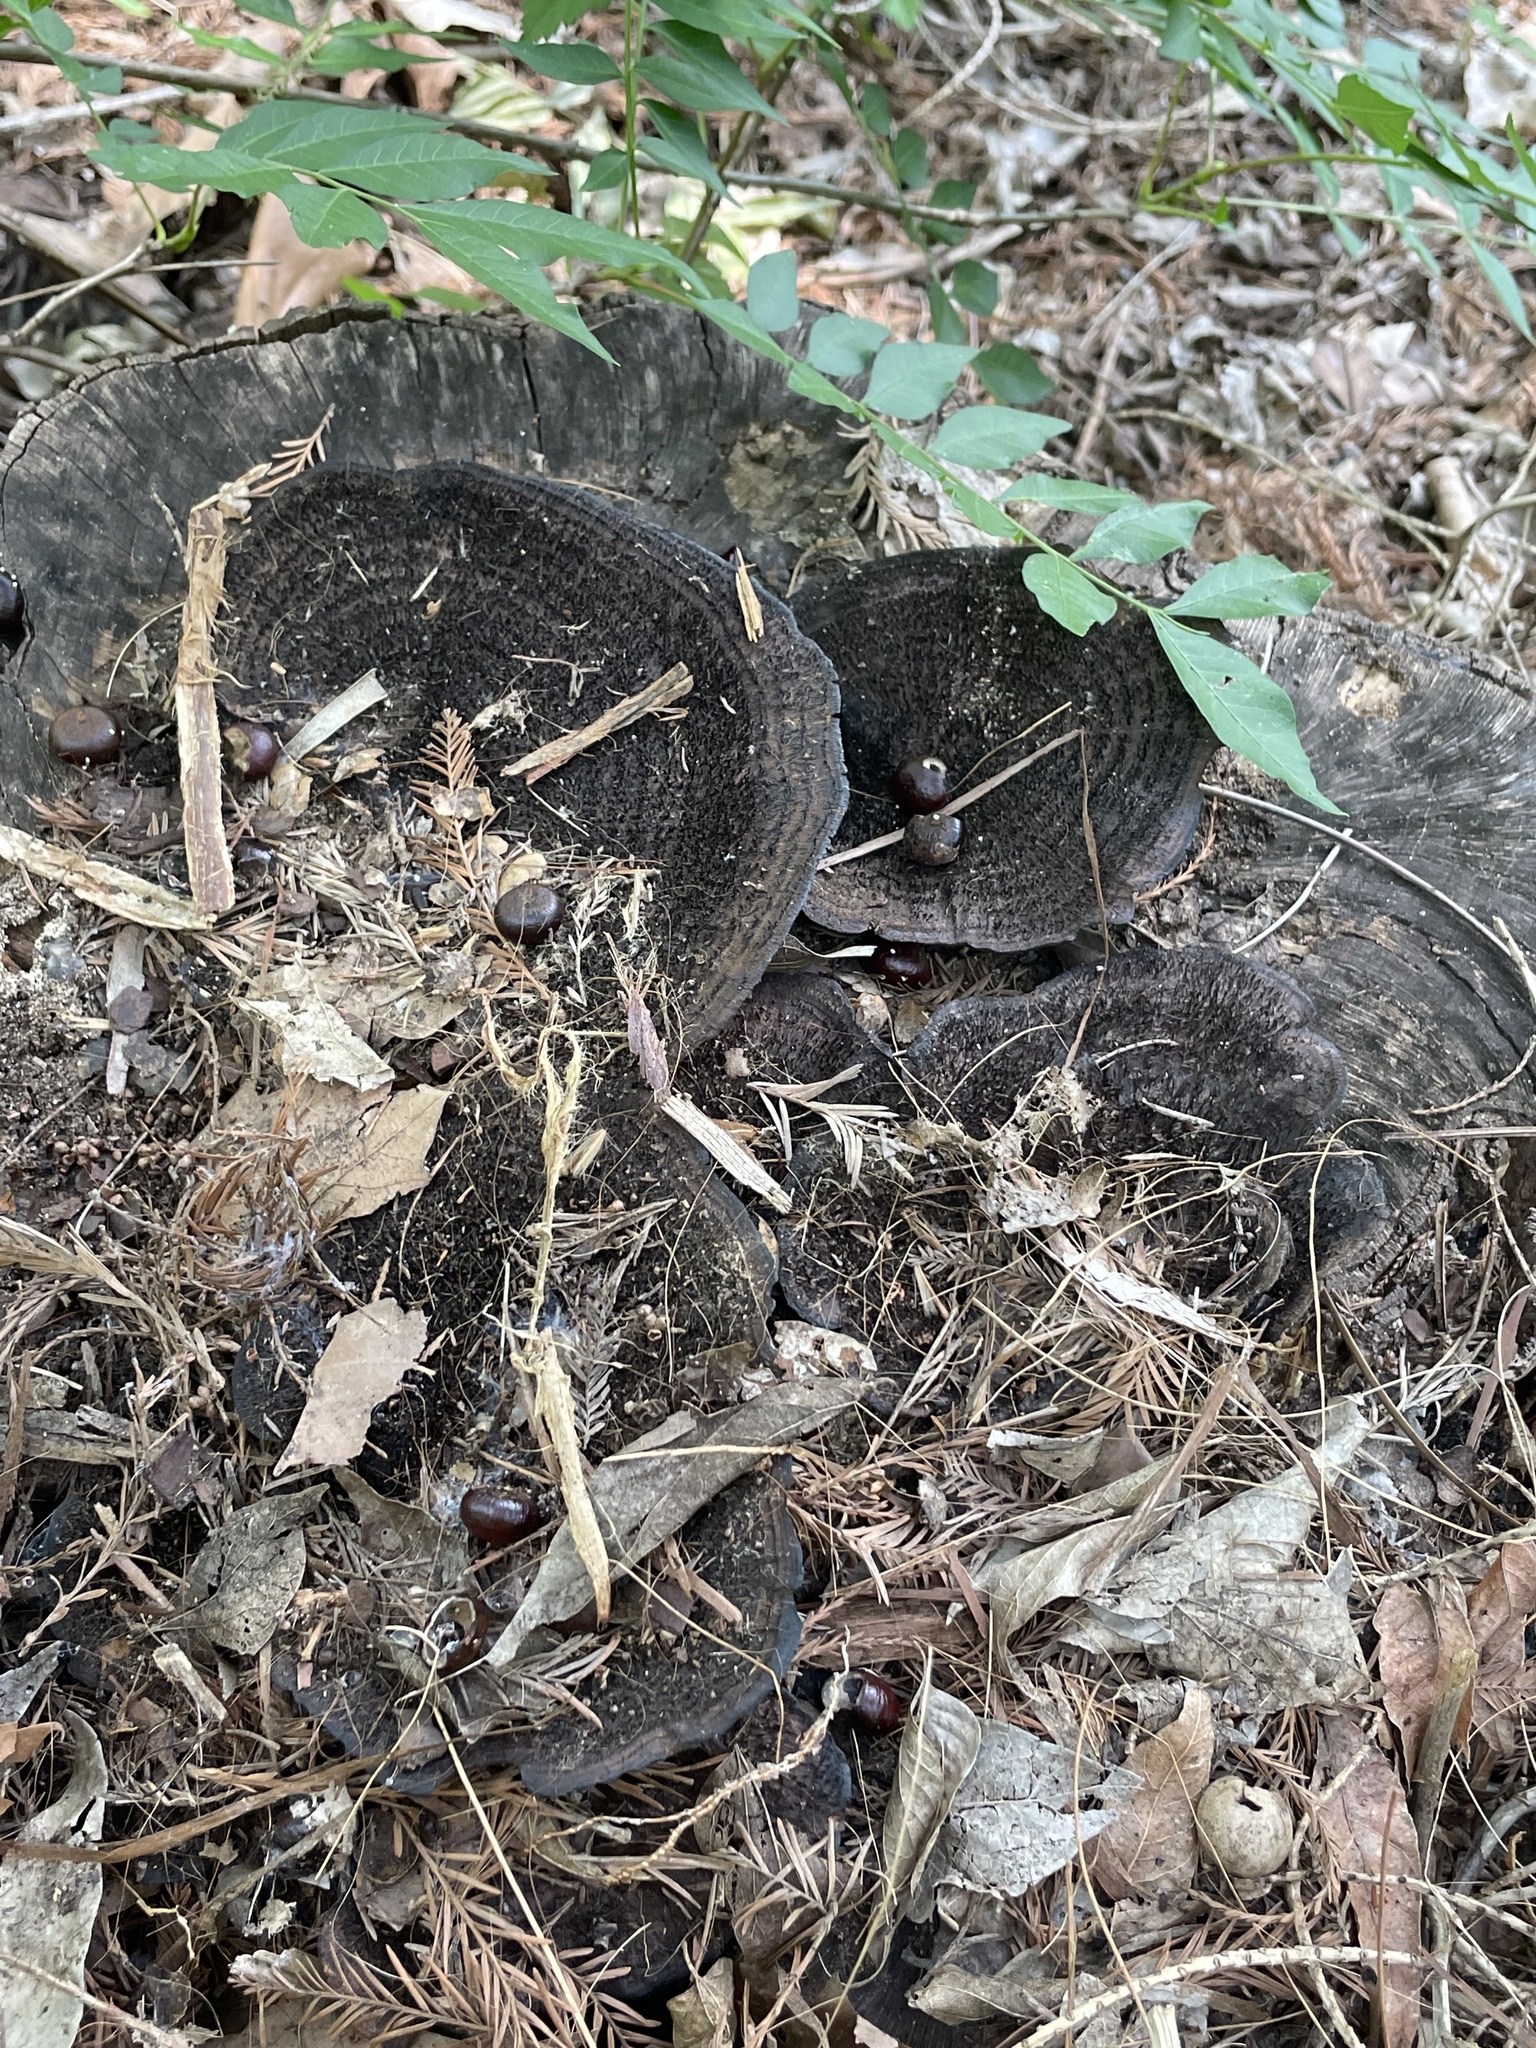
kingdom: Fungi
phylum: Basidiomycota
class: Agaricomycetes
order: Polyporales
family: Cerrenaceae
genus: Cerrena
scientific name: Cerrena hydnoides
